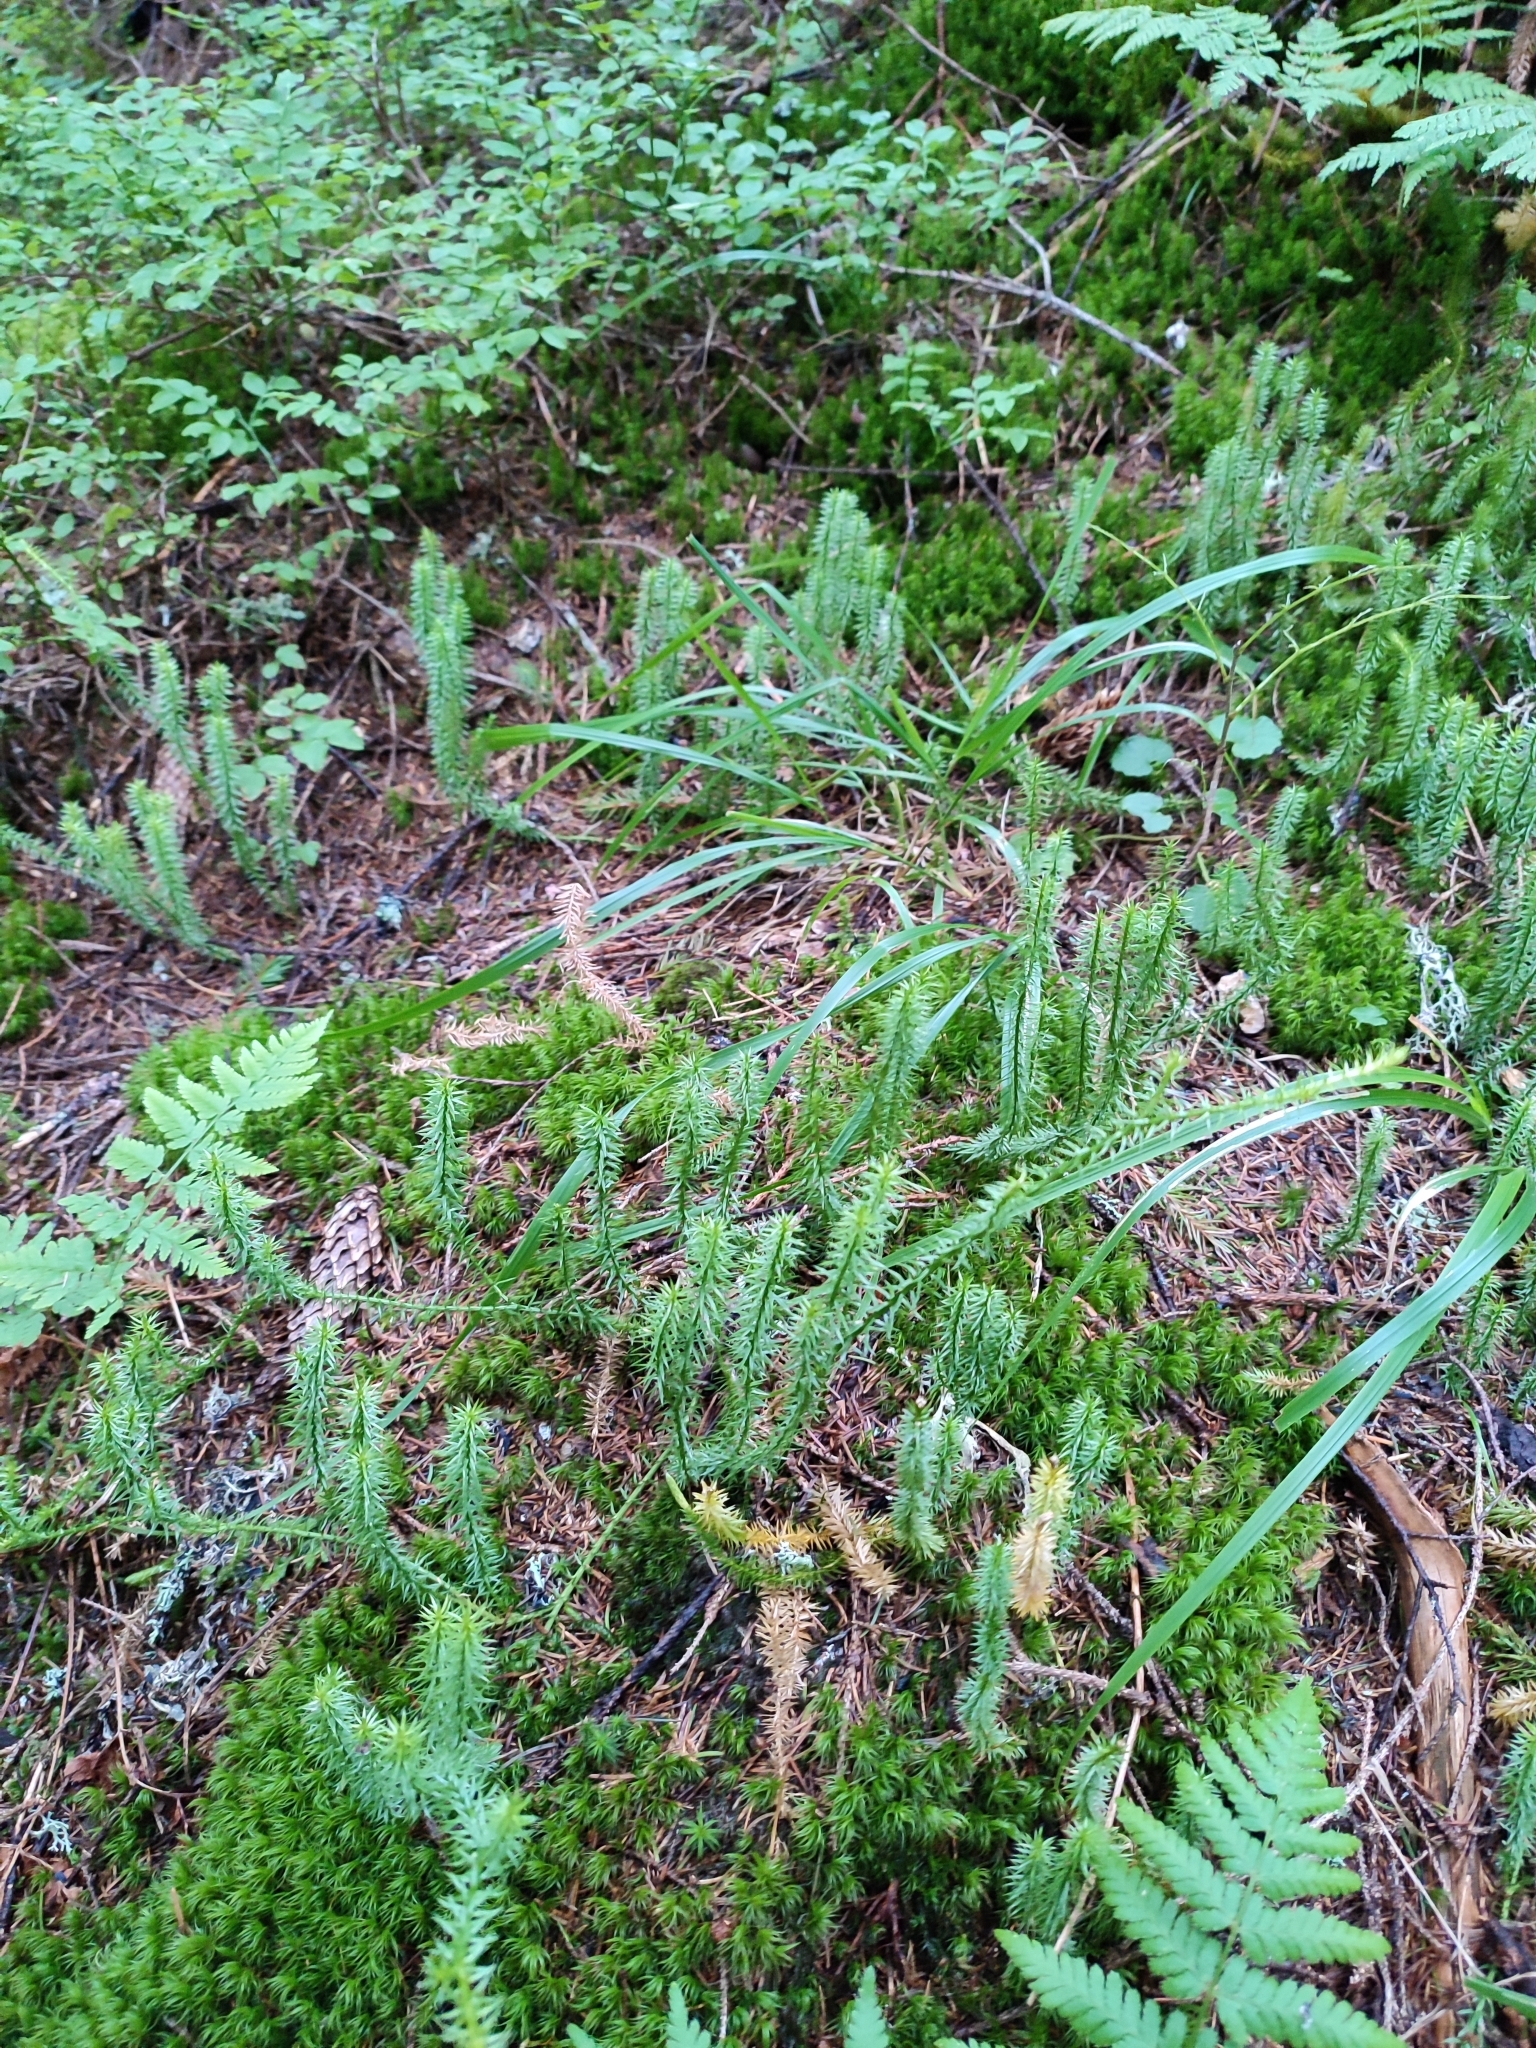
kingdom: Plantae
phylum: Tracheophyta
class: Lycopodiopsida
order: Lycopodiales
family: Lycopodiaceae
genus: Spinulum
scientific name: Spinulum annotinum
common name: Interrupted club-moss
